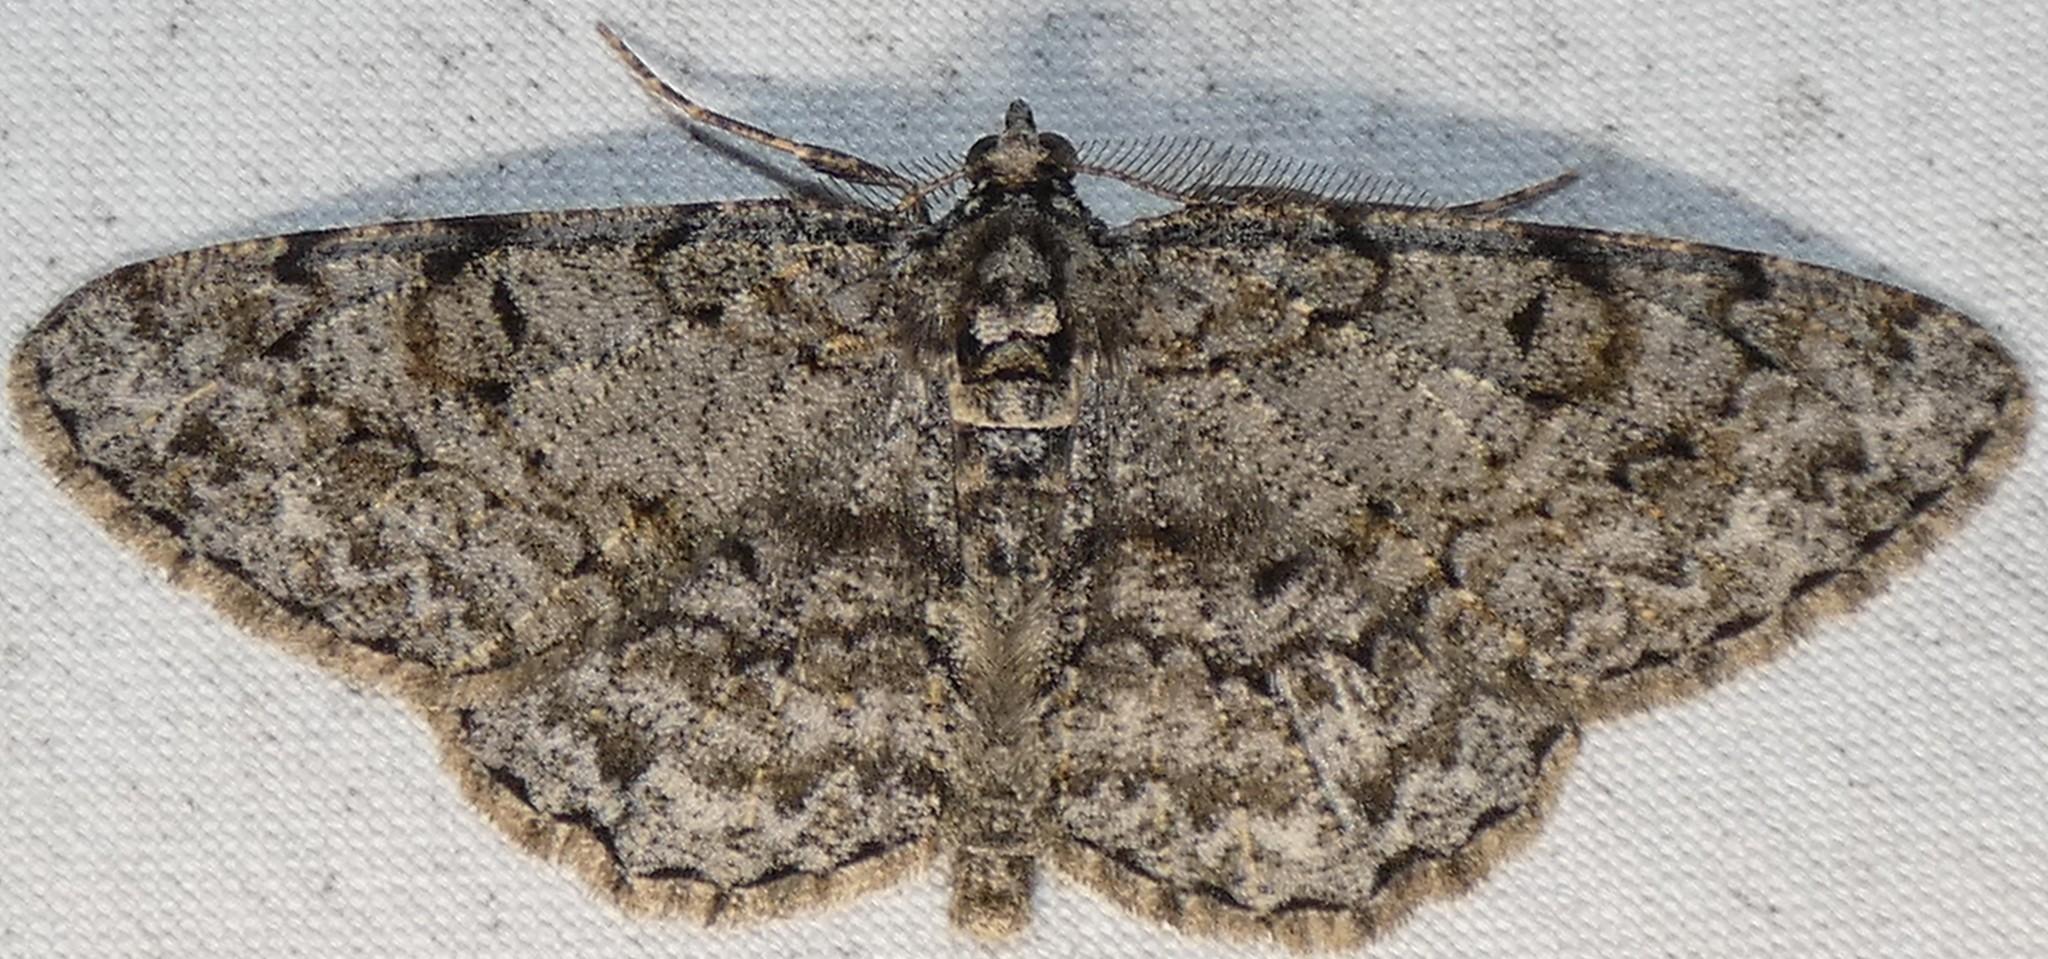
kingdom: Animalia
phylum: Arthropoda
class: Insecta
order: Lepidoptera
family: Geometridae
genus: Protoboarmia
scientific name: Protoboarmia porcelaria
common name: Porcelain gray
